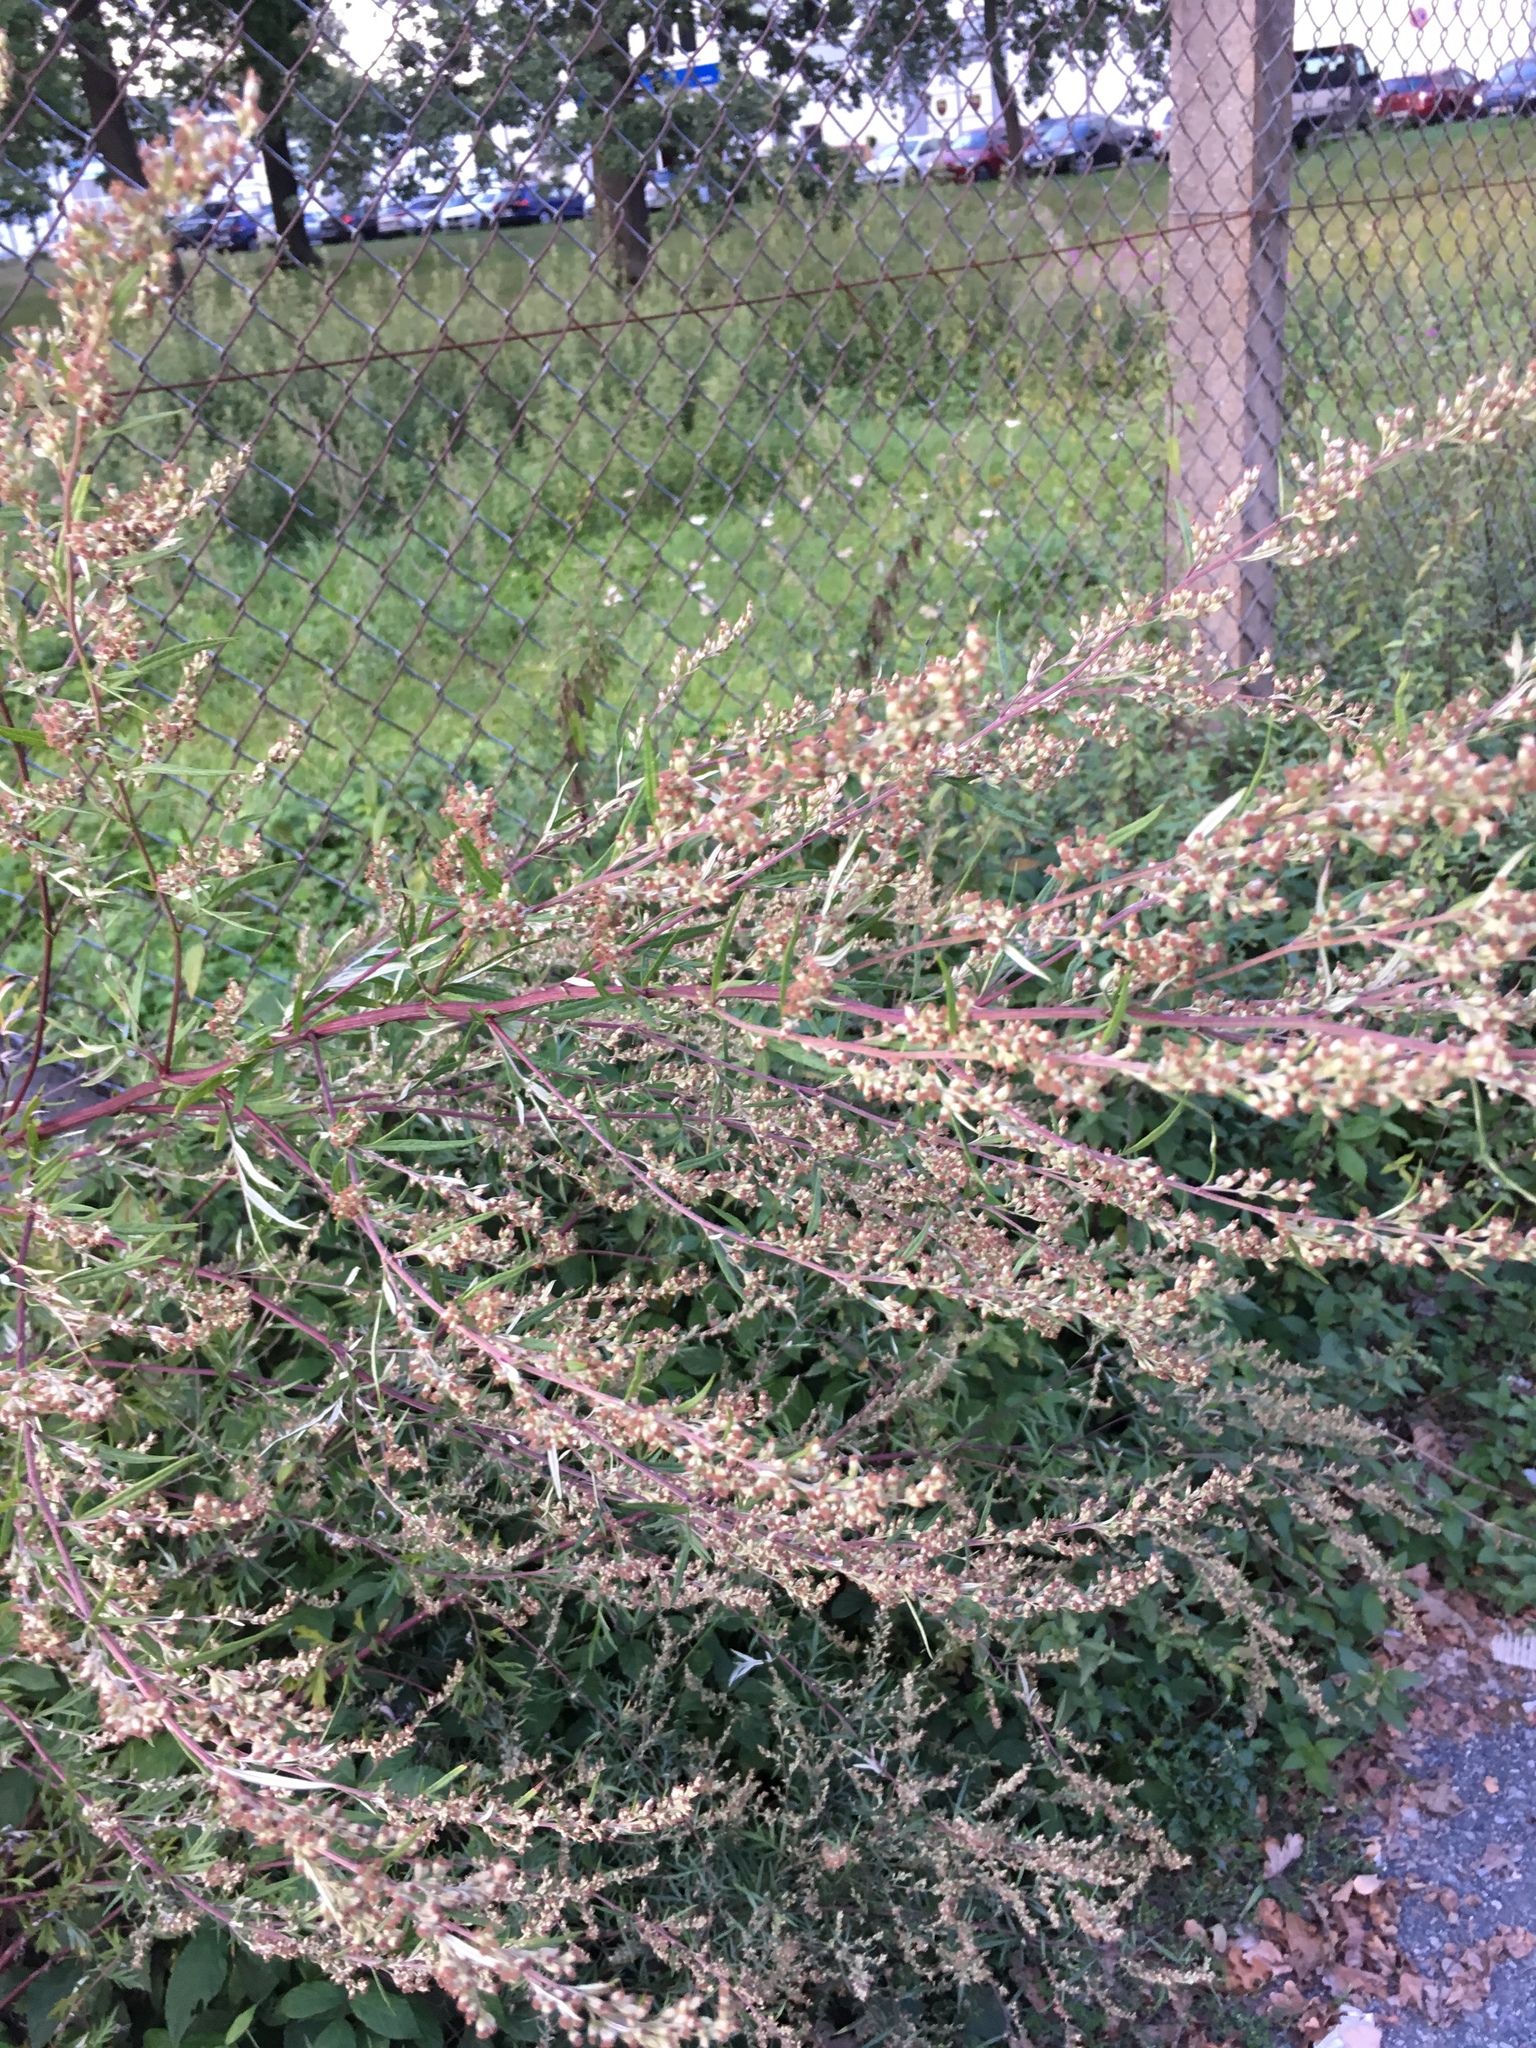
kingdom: Plantae
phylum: Tracheophyta
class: Magnoliopsida
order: Asterales
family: Asteraceae
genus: Artemisia
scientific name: Artemisia vulgaris
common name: Mugwort
